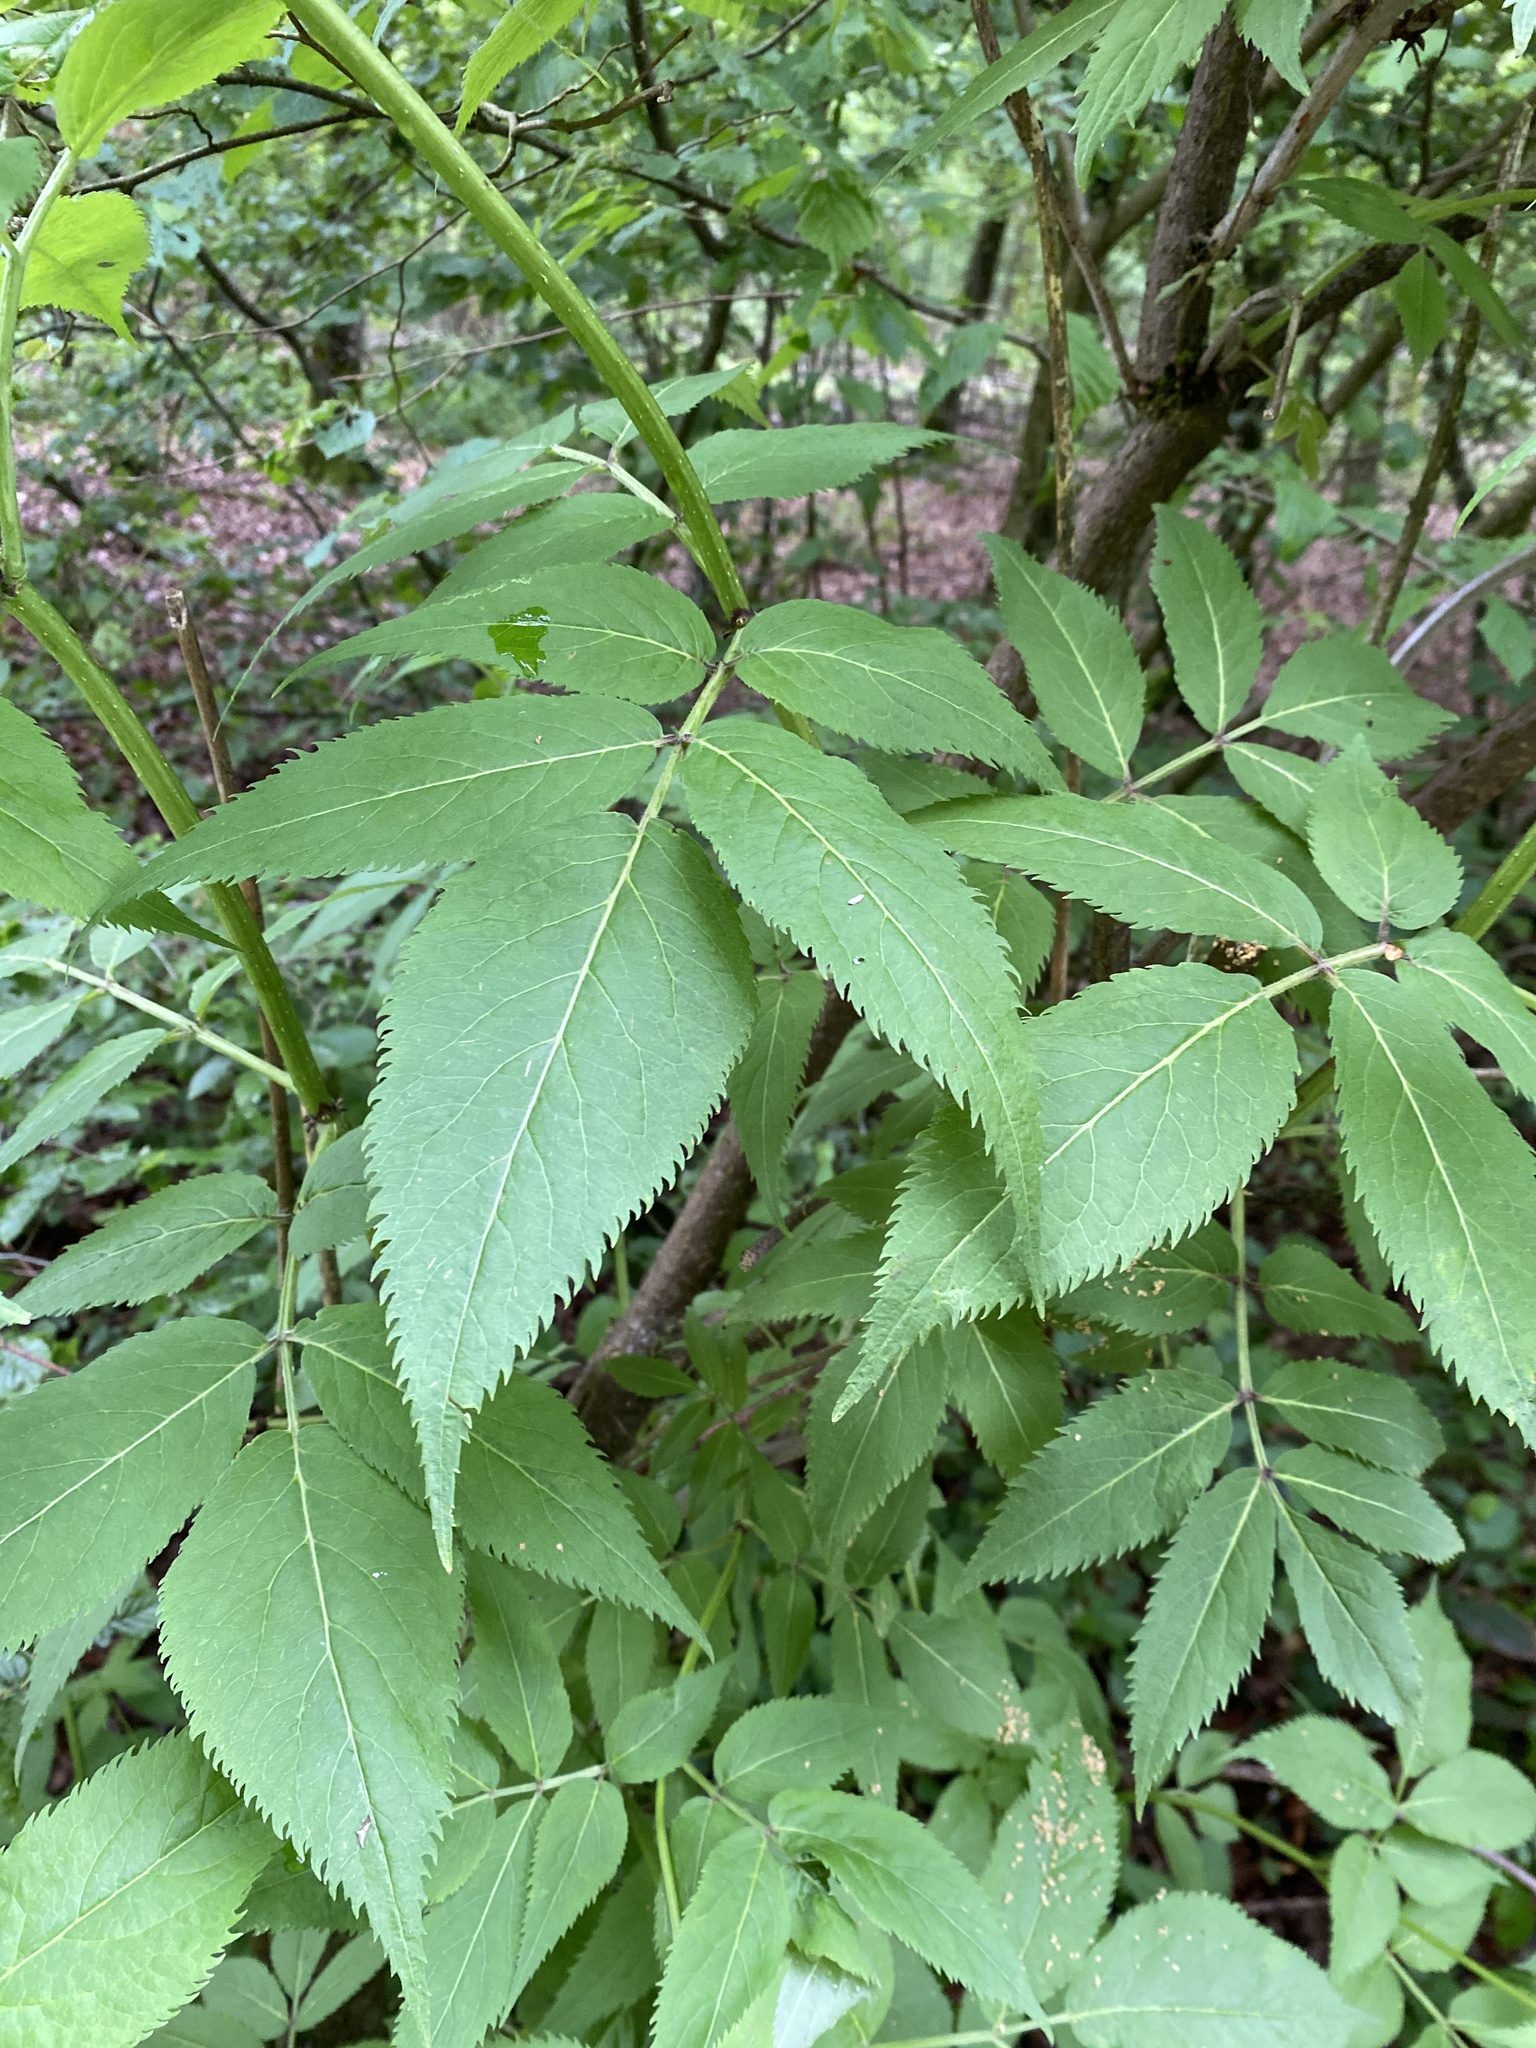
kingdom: Plantae
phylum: Tracheophyta
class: Magnoliopsida
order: Dipsacales
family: Viburnaceae
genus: Sambucus
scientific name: Sambucus racemosa
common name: Red-berried elder
